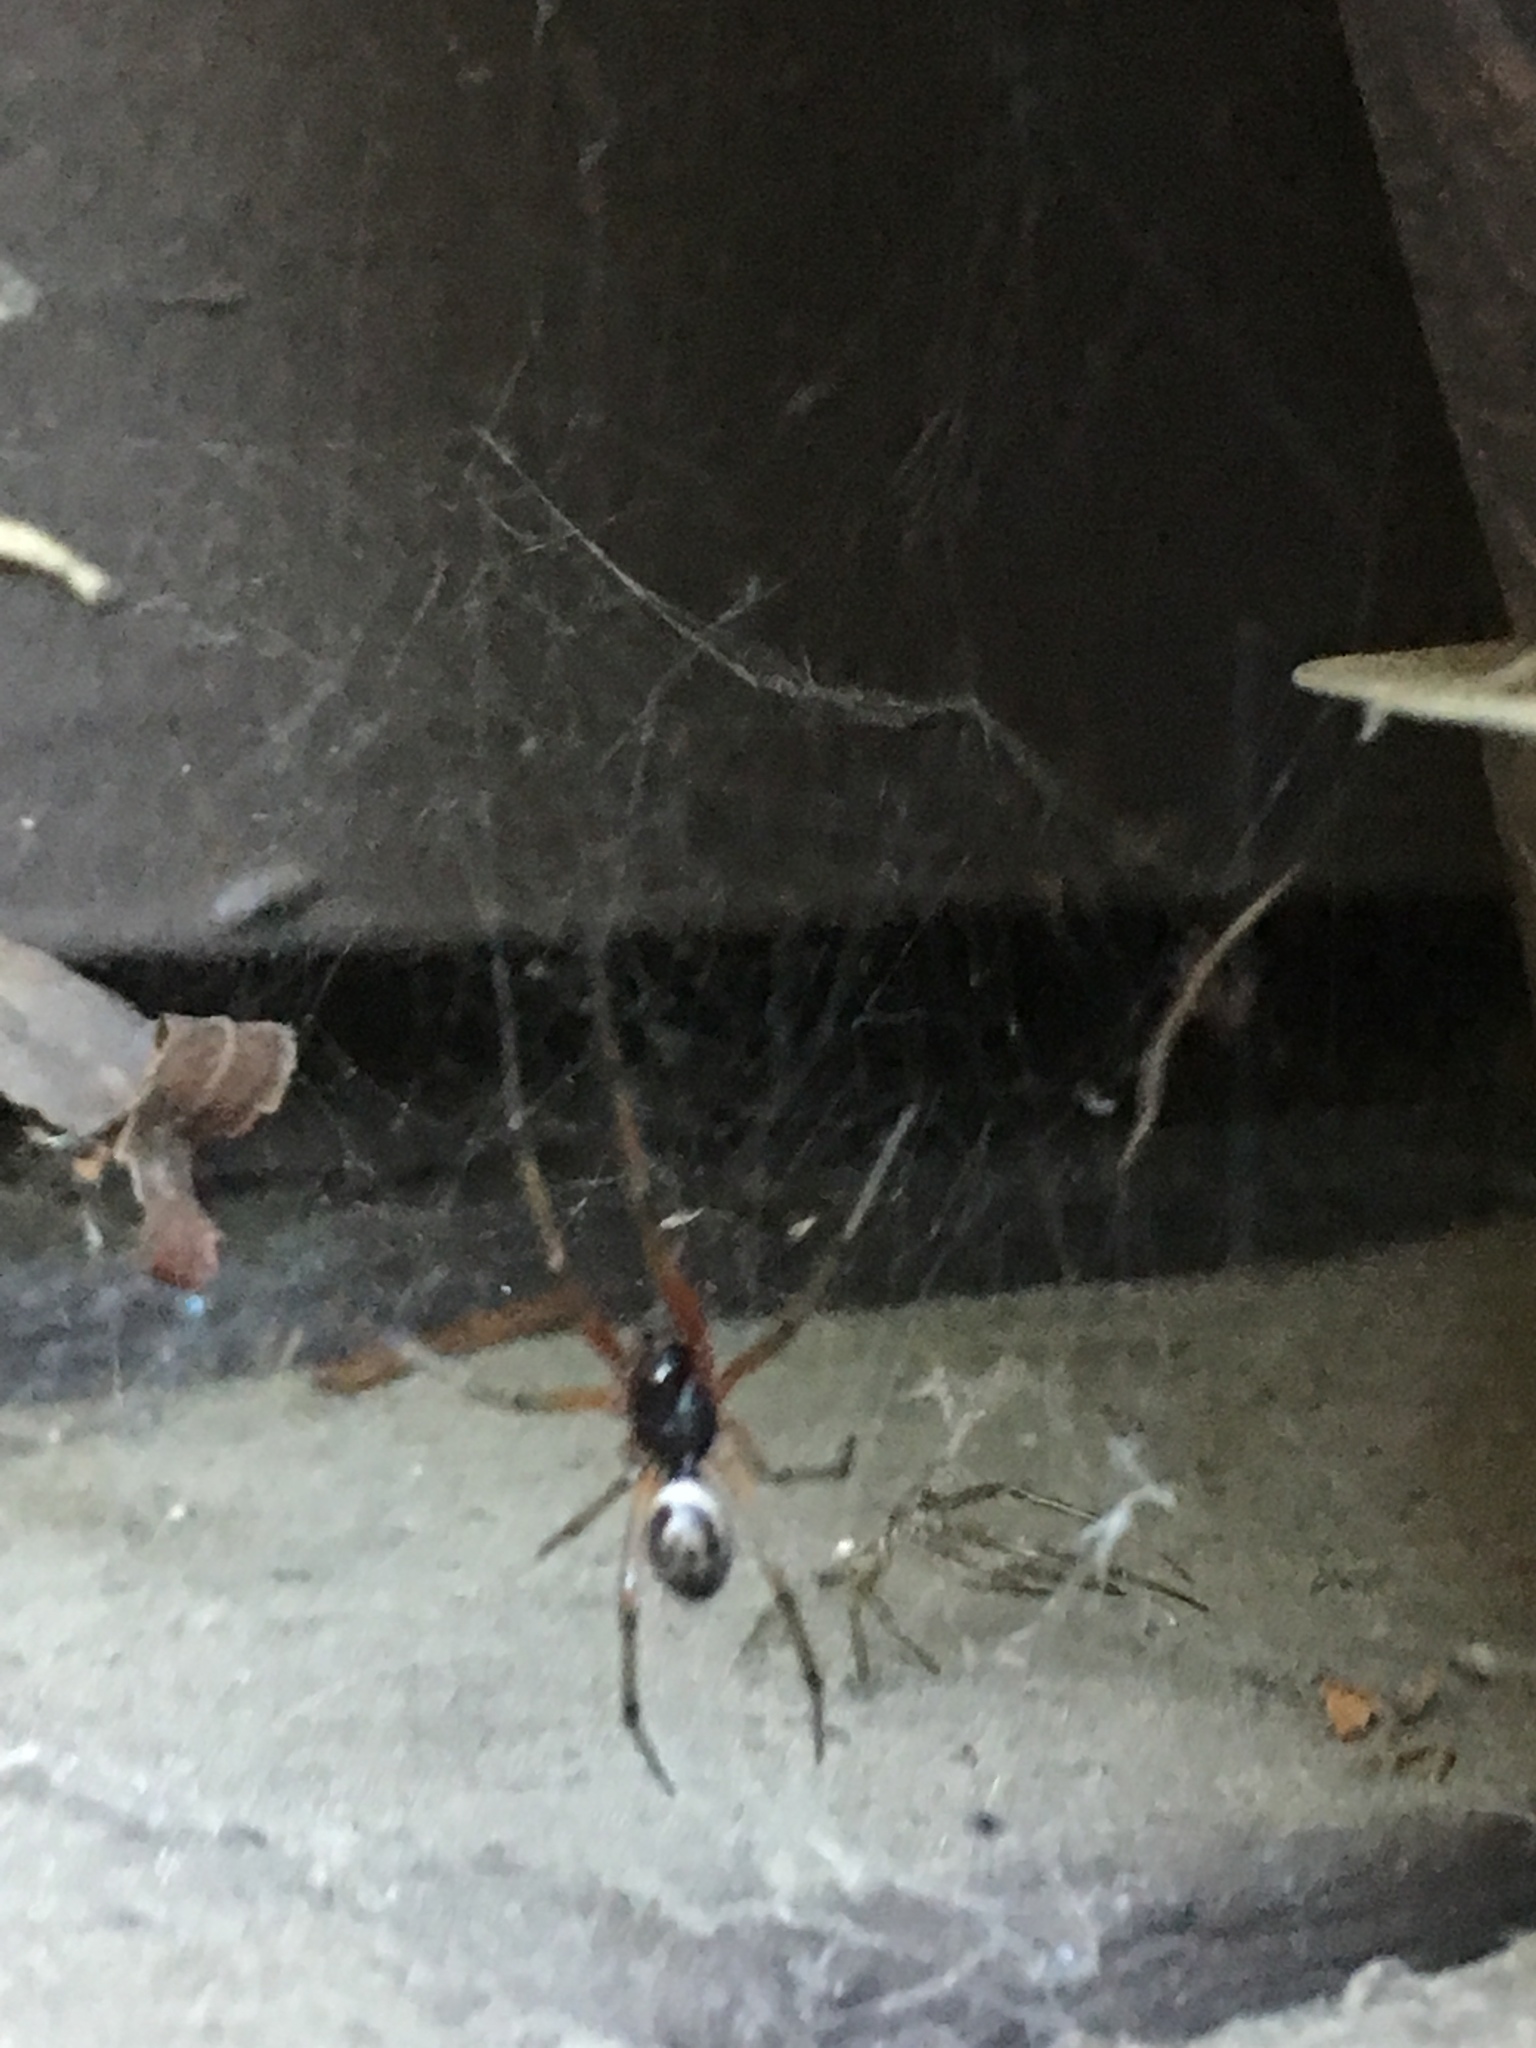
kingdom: Animalia
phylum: Arthropoda
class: Arachnida
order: Araneae
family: Theridiidae
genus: Steatoda
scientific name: Steatoda nobilis
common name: Cobweb weaver
